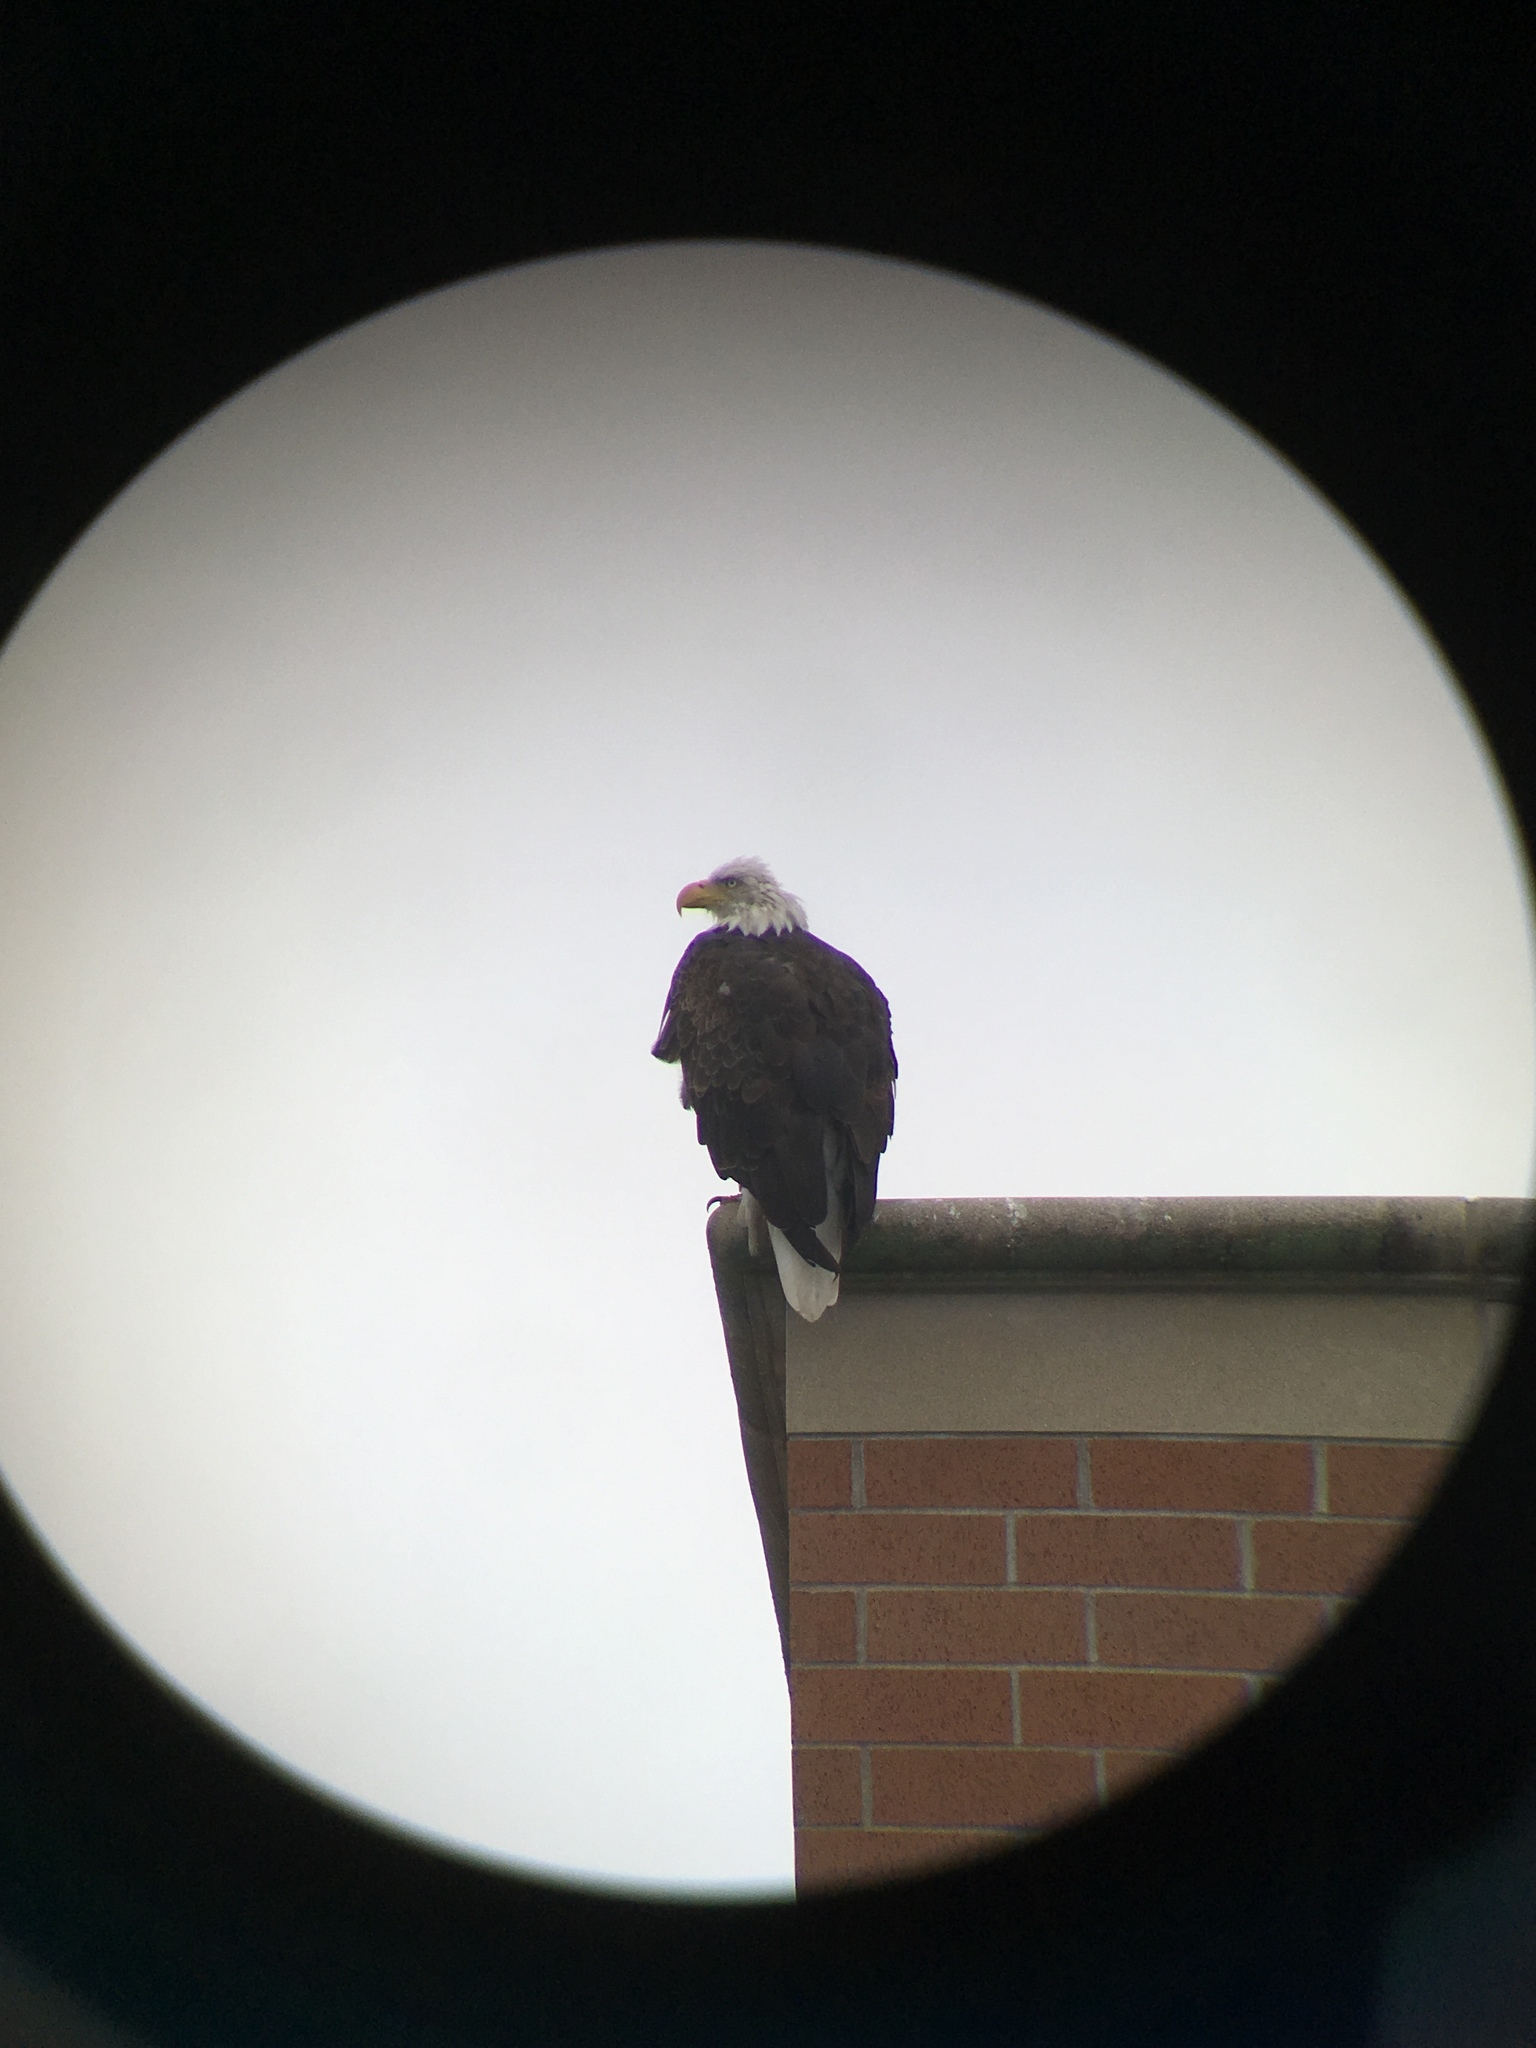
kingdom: Animalia
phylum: Chordata
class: Aves
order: Accipitriformes
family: Accipitridae
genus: Haliaeetus
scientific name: Haliaeetus leucocephalus
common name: Bald eagle
